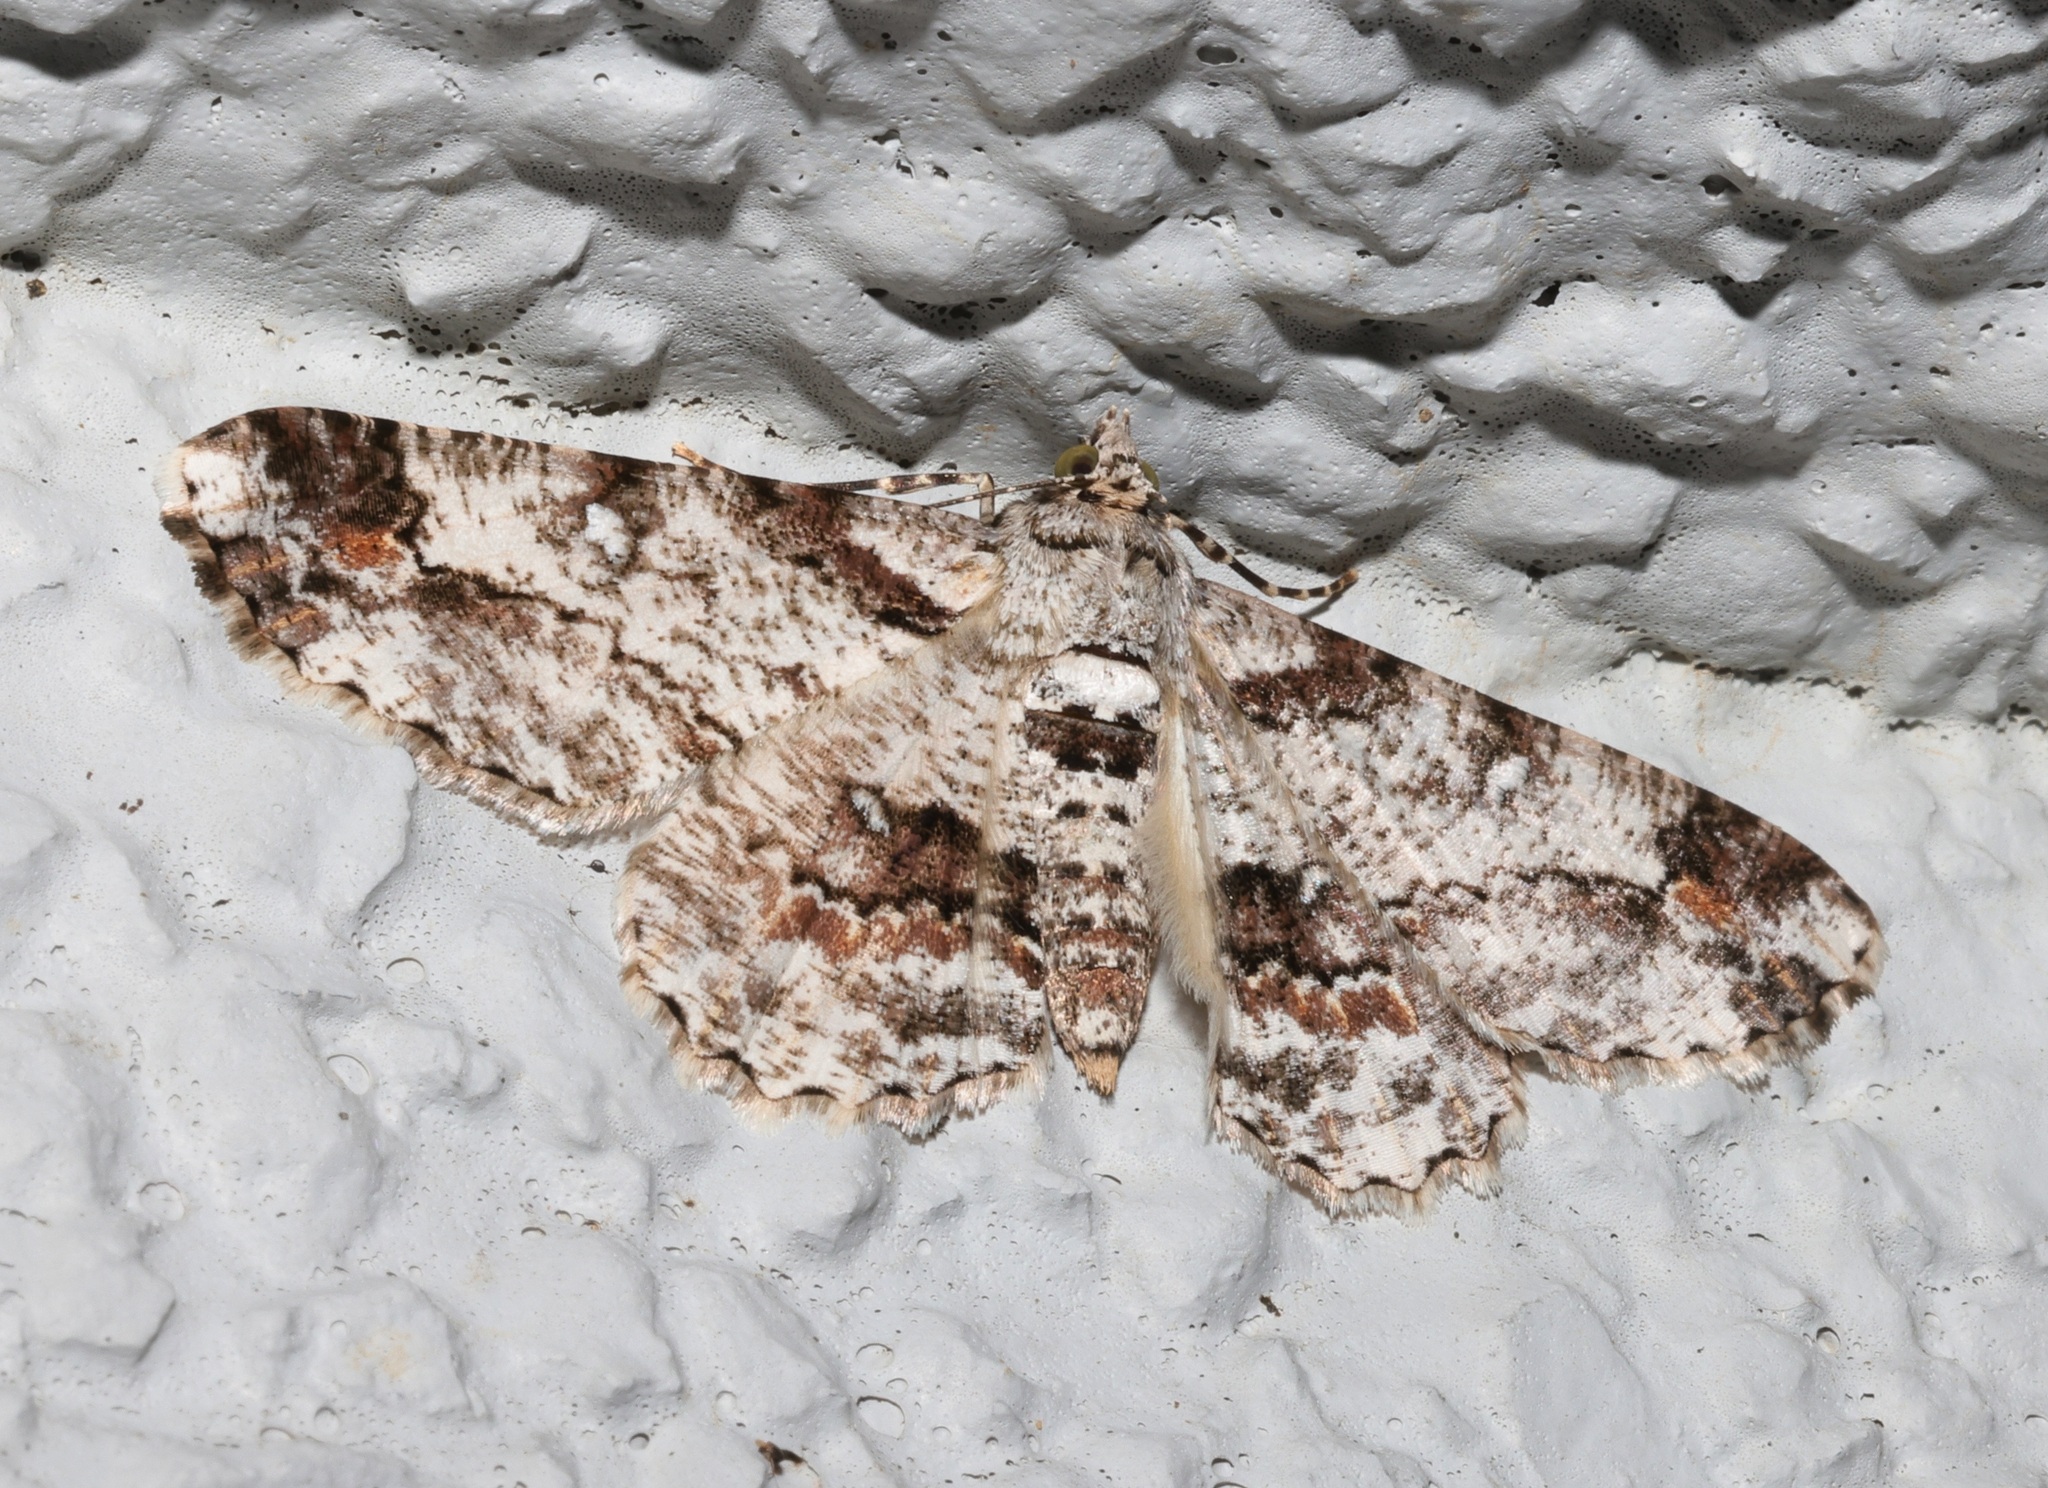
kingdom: Animalia
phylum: Arthropoda
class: Insecta
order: Lepidoptera
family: Geometridae
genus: Ascotis
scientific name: Ascotis selenaria
